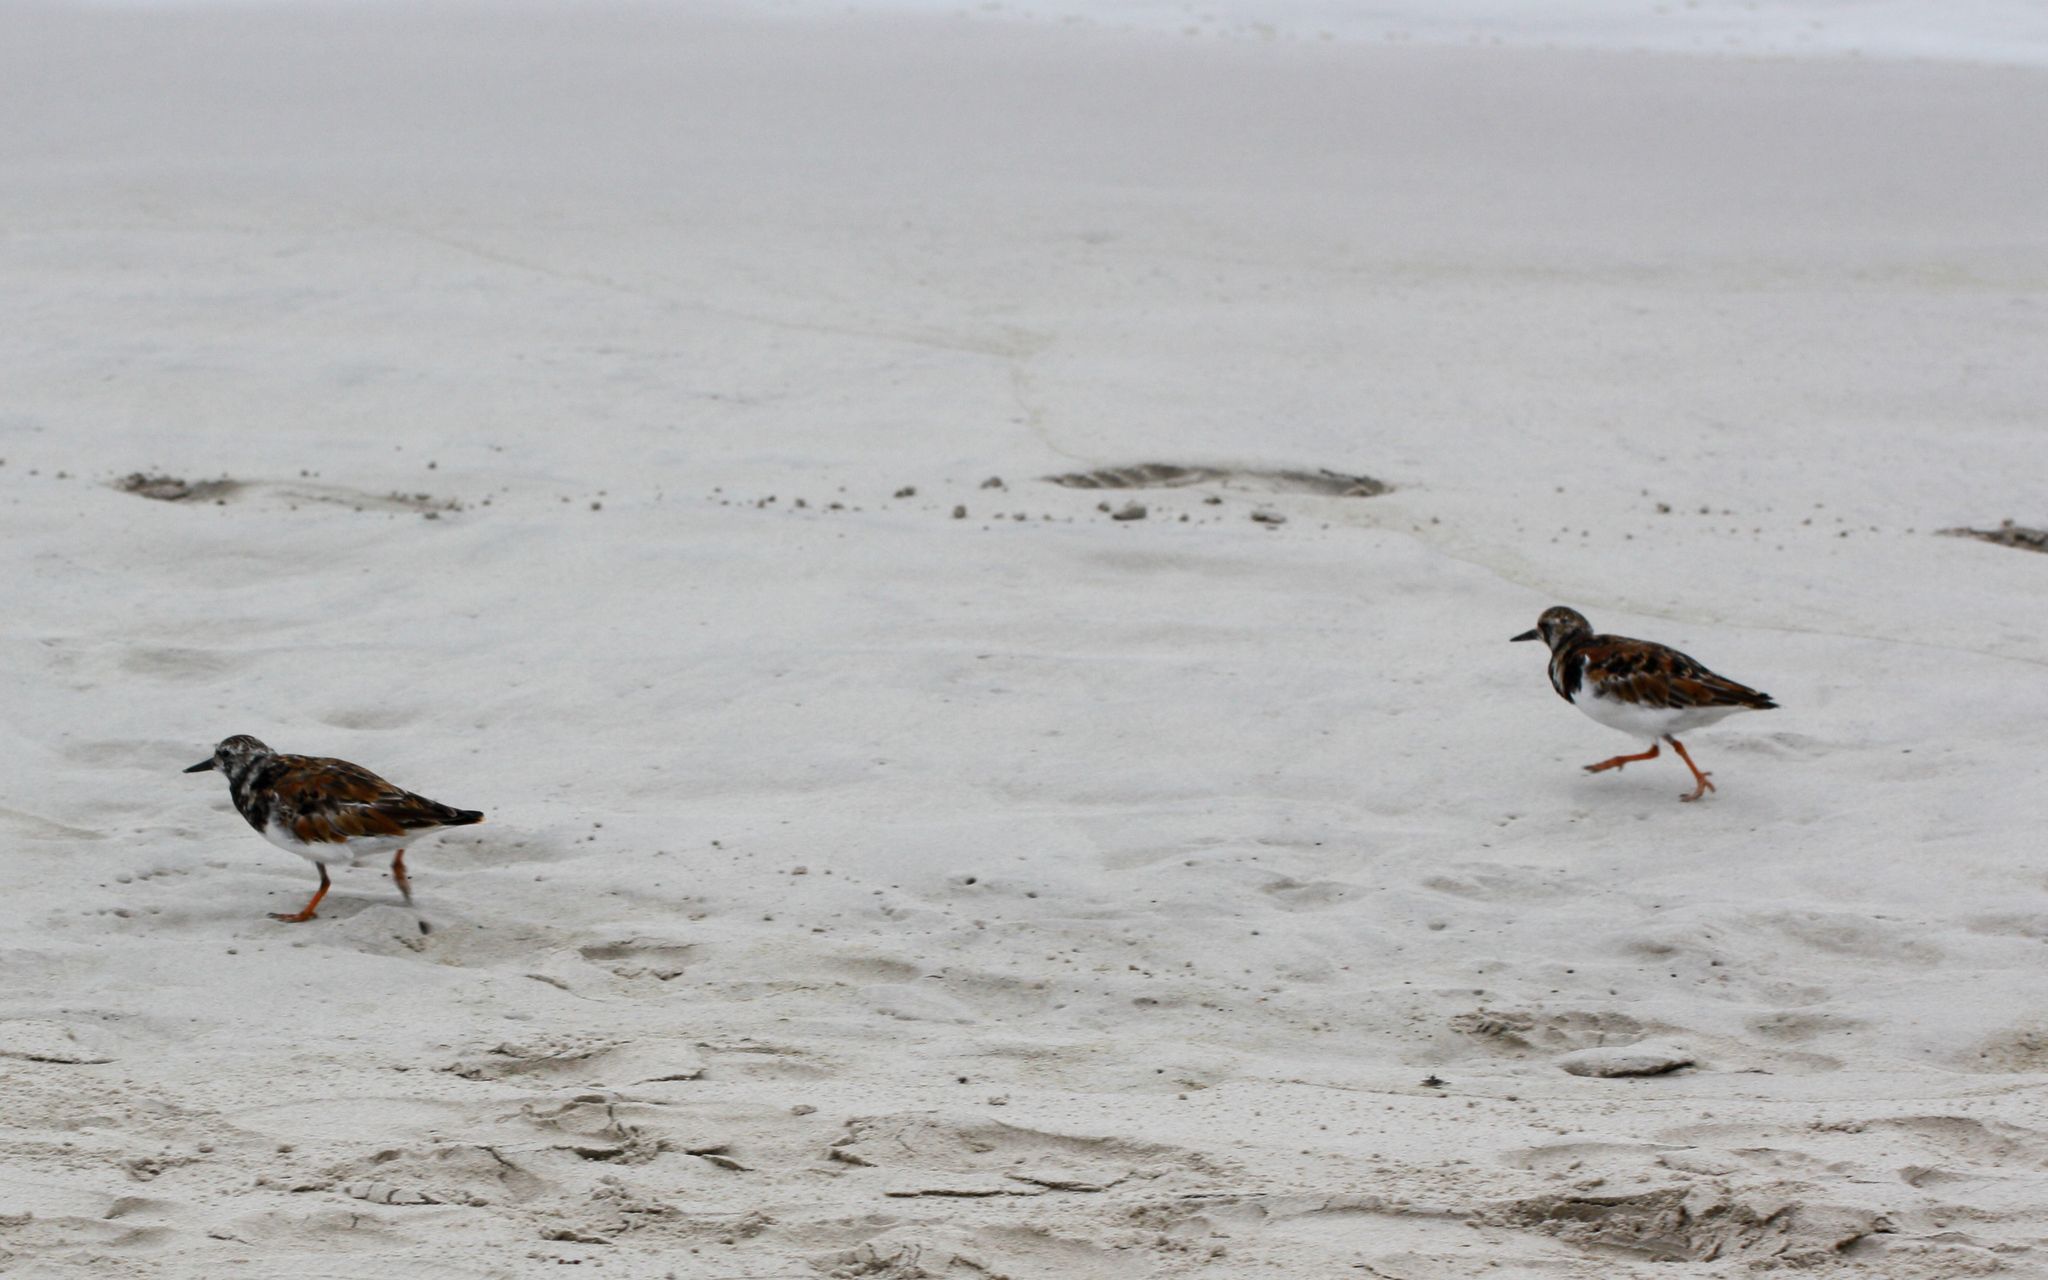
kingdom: Animalia
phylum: Chordata
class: Aves
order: Charadriiformes
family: Scolopacidae
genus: Arenaria
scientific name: Arenaria interpres
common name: Ruddy turnstone
